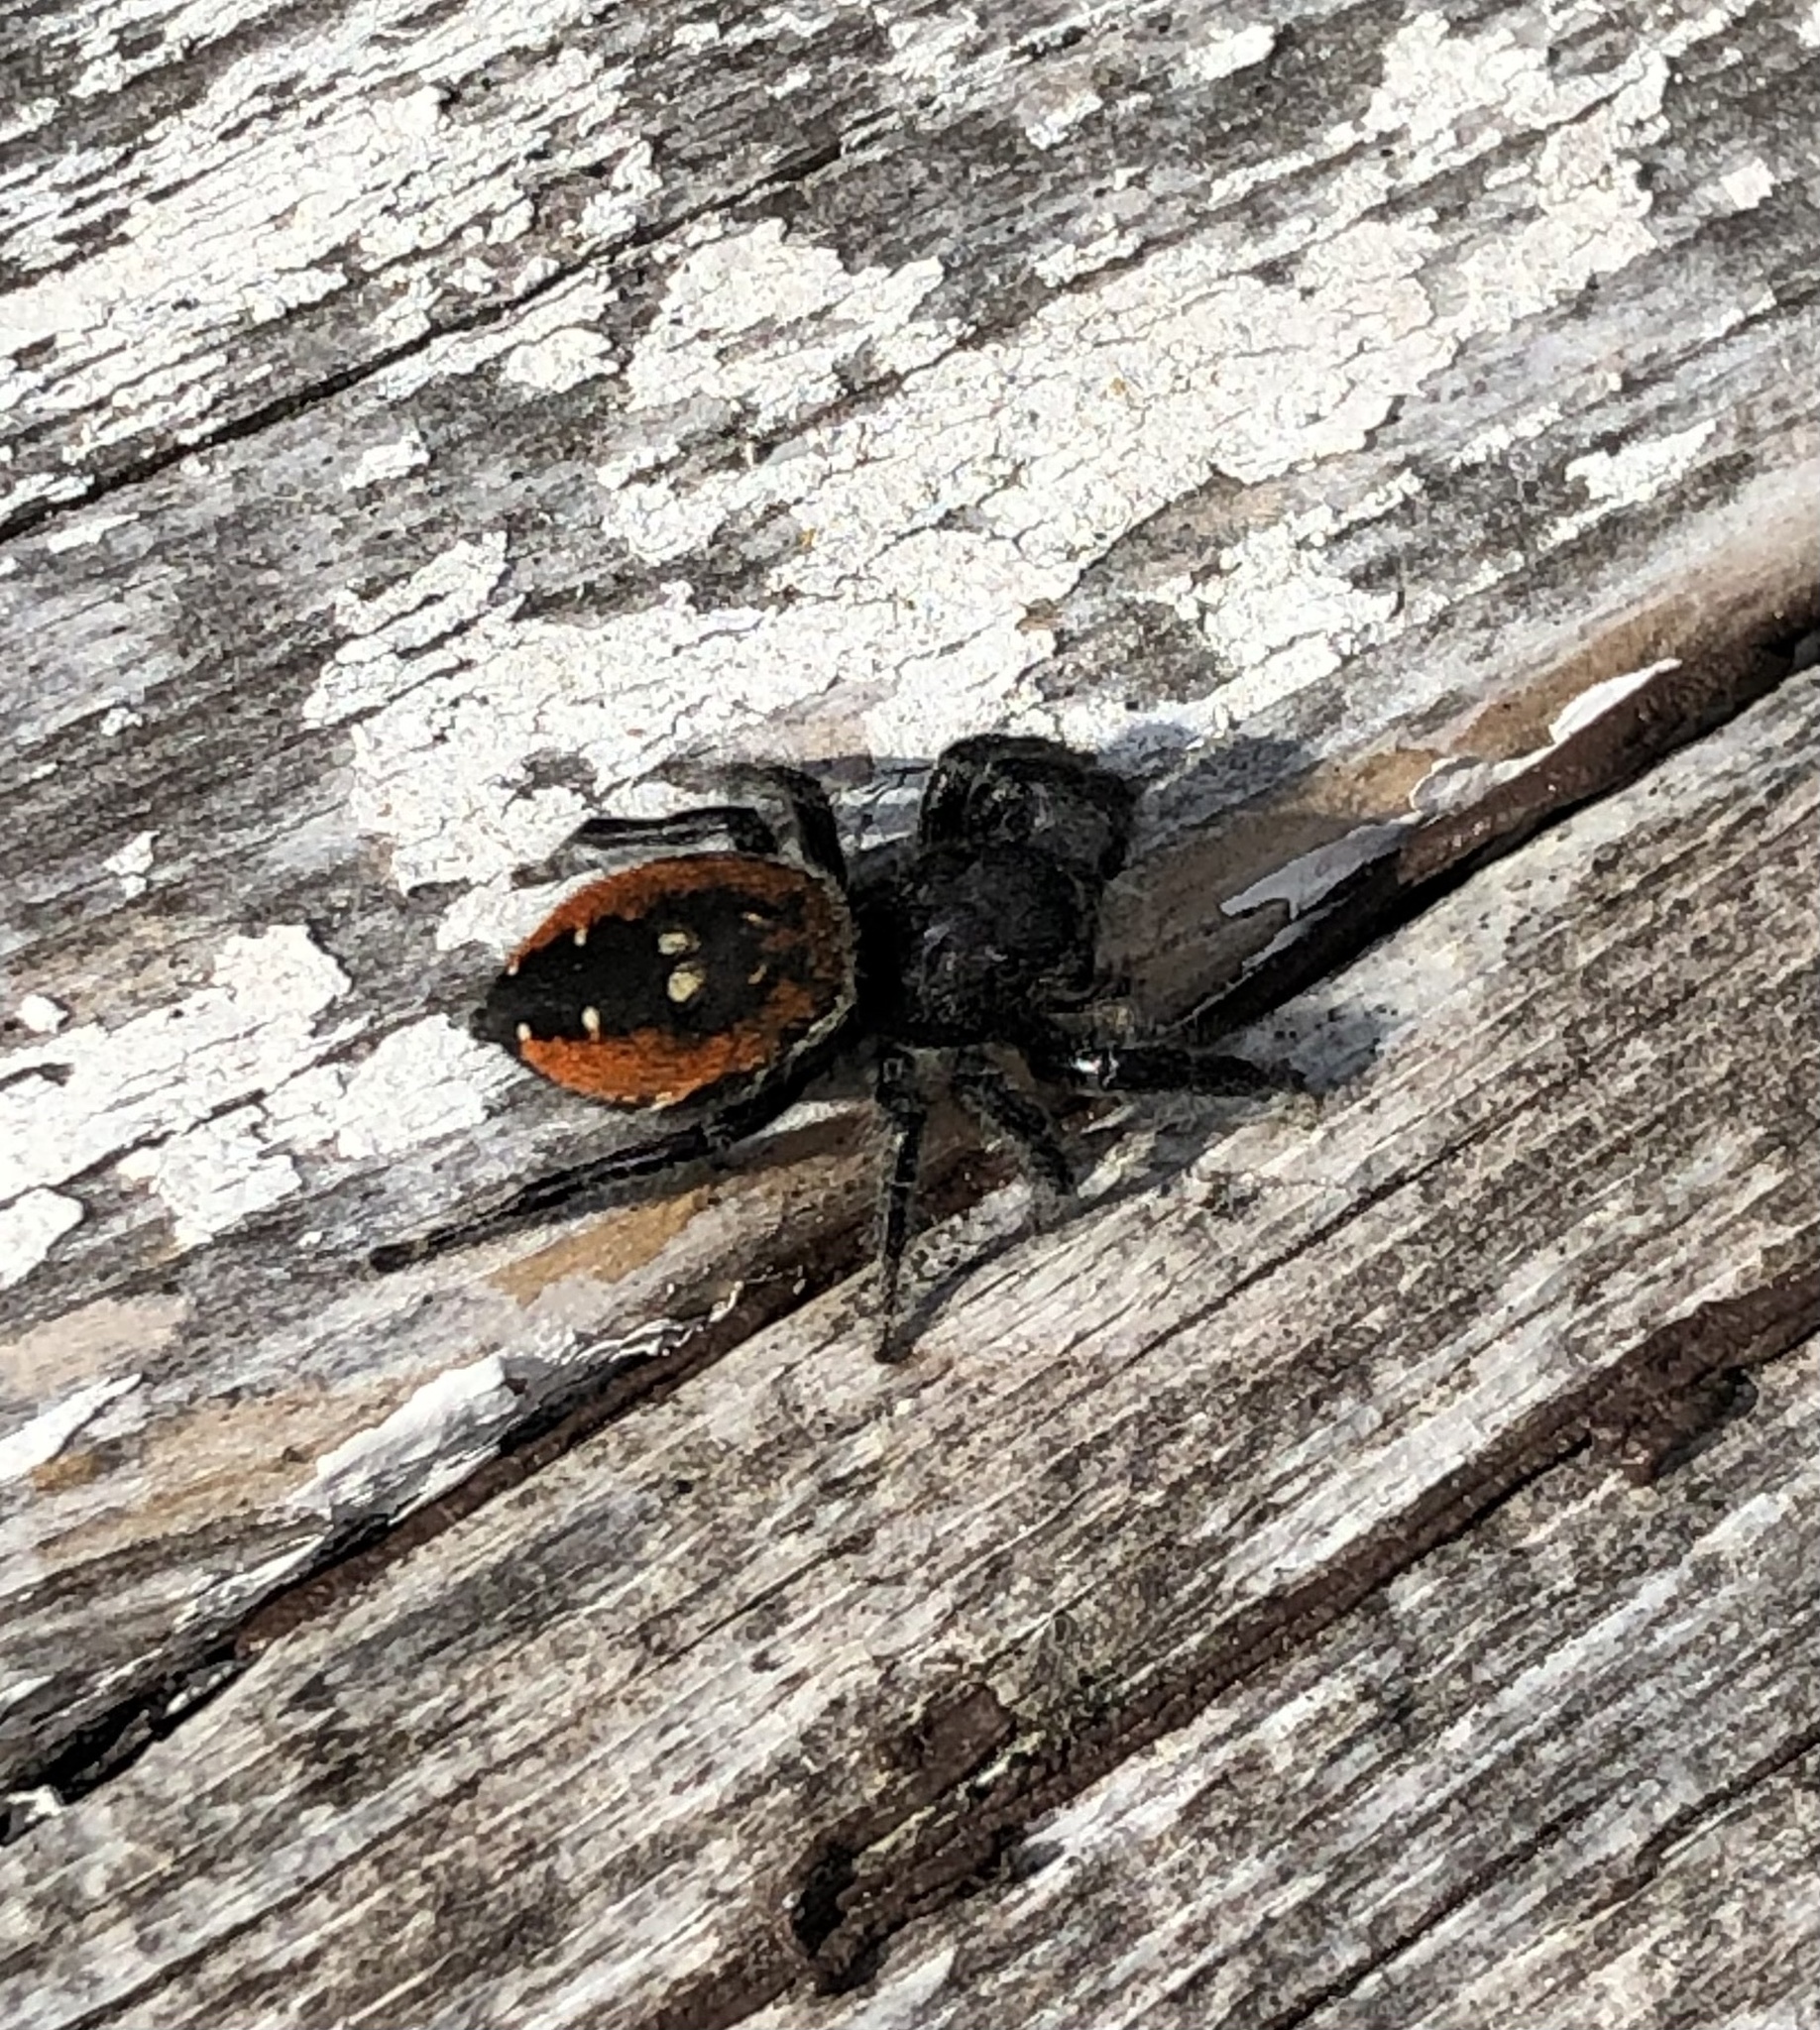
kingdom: Animalia
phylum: Arthropoda
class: Arachnida
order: Araneae
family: Salticidae
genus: Phidippus
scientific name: Phidippus johnsoni
